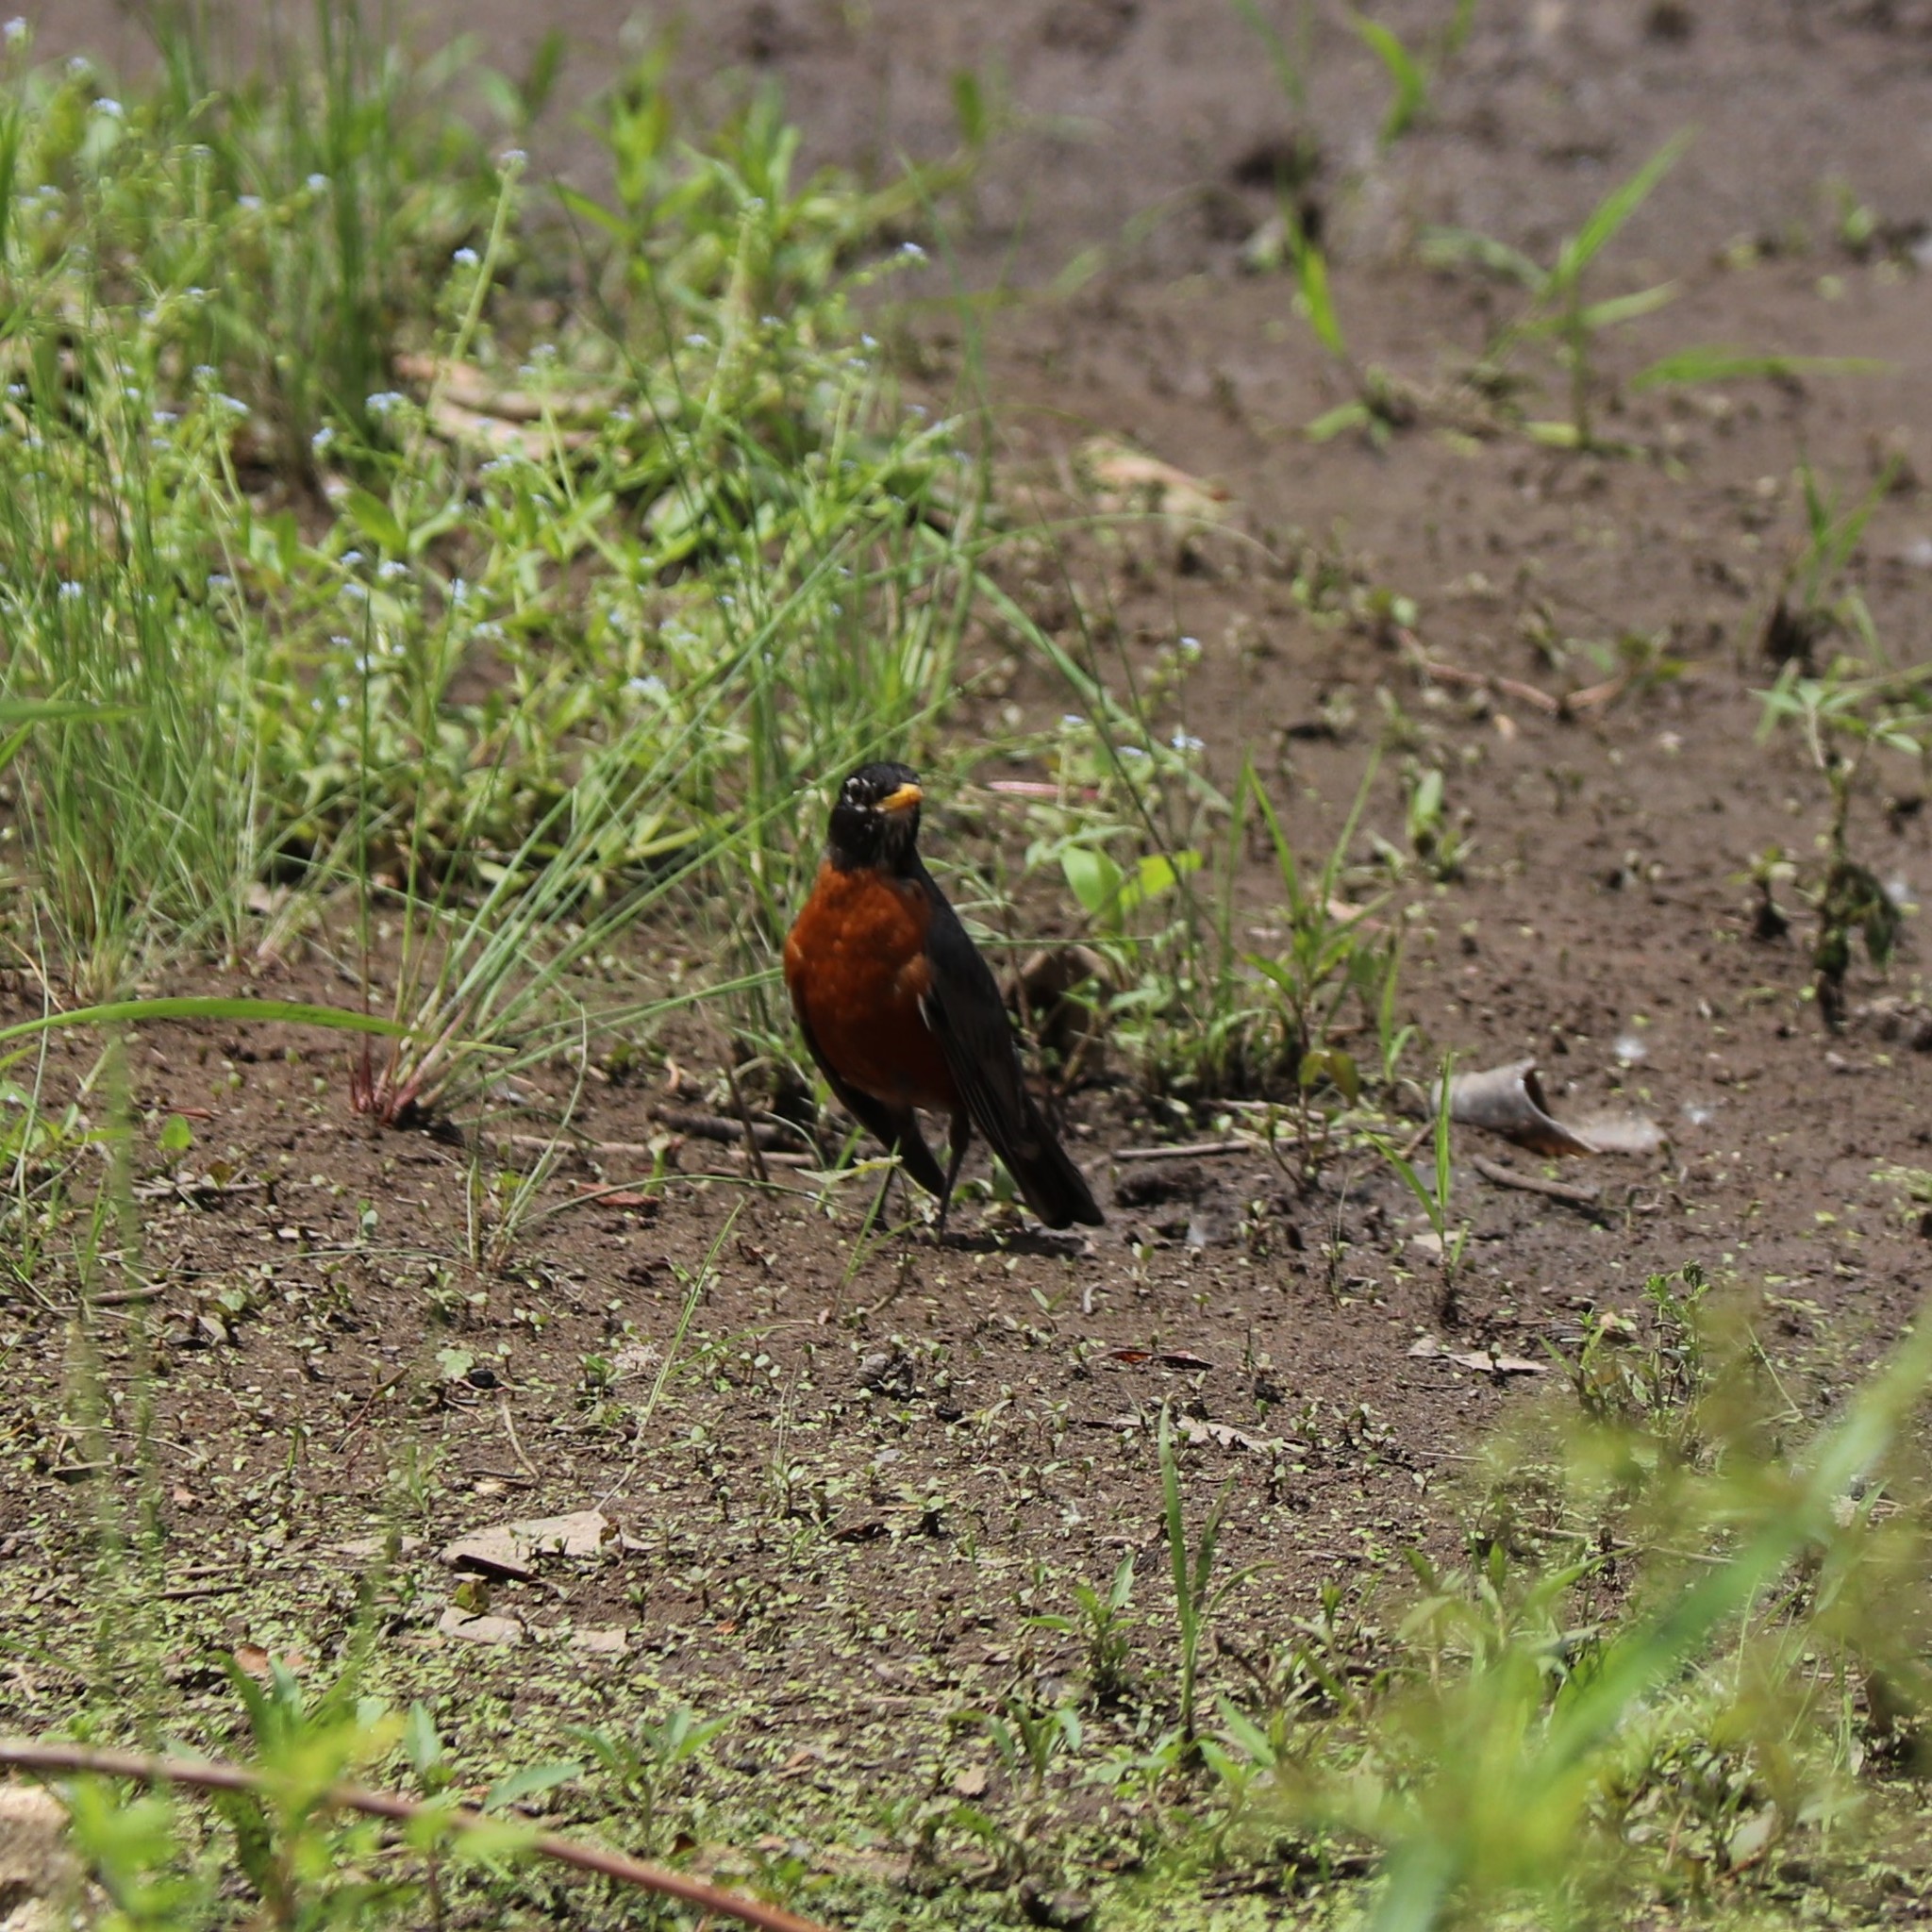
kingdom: Animalia
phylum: Chordata
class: Aves
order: Passeriformes
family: Turdidae
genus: Turdus
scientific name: Turdus migratorius
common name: American robin
